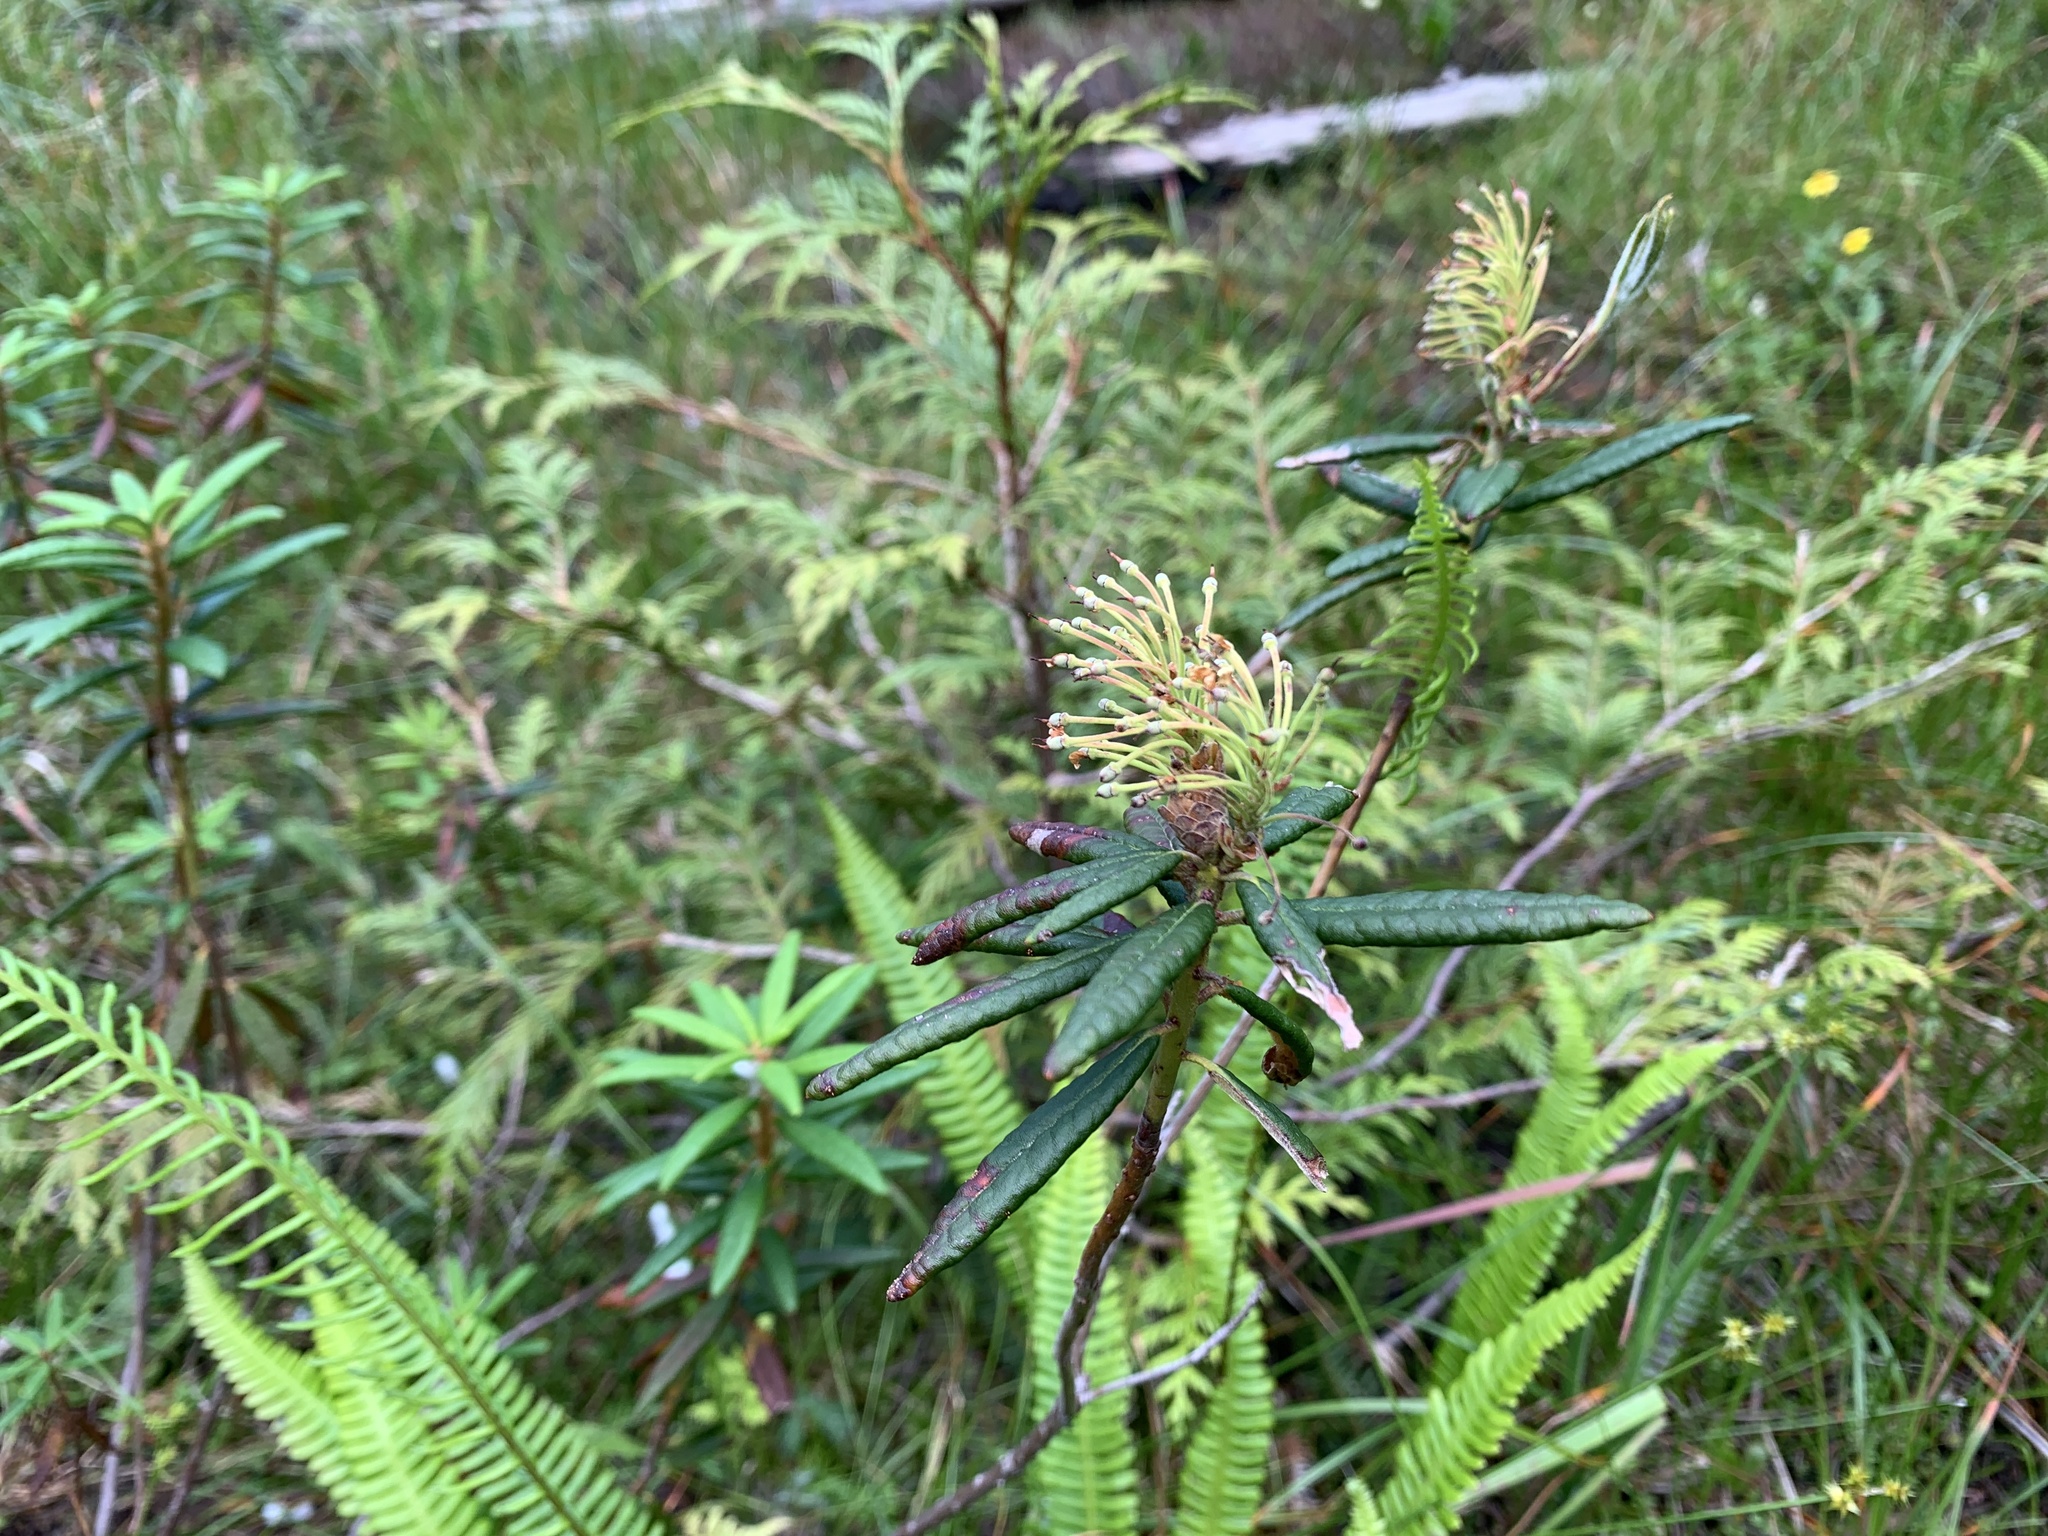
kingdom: Plantae
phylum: Tracheophyta
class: Magnoliopsida
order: Ericales
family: Ericaceae
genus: Rhododendron
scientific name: Rhododendron groenlandicum
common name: Bog labrador tea
